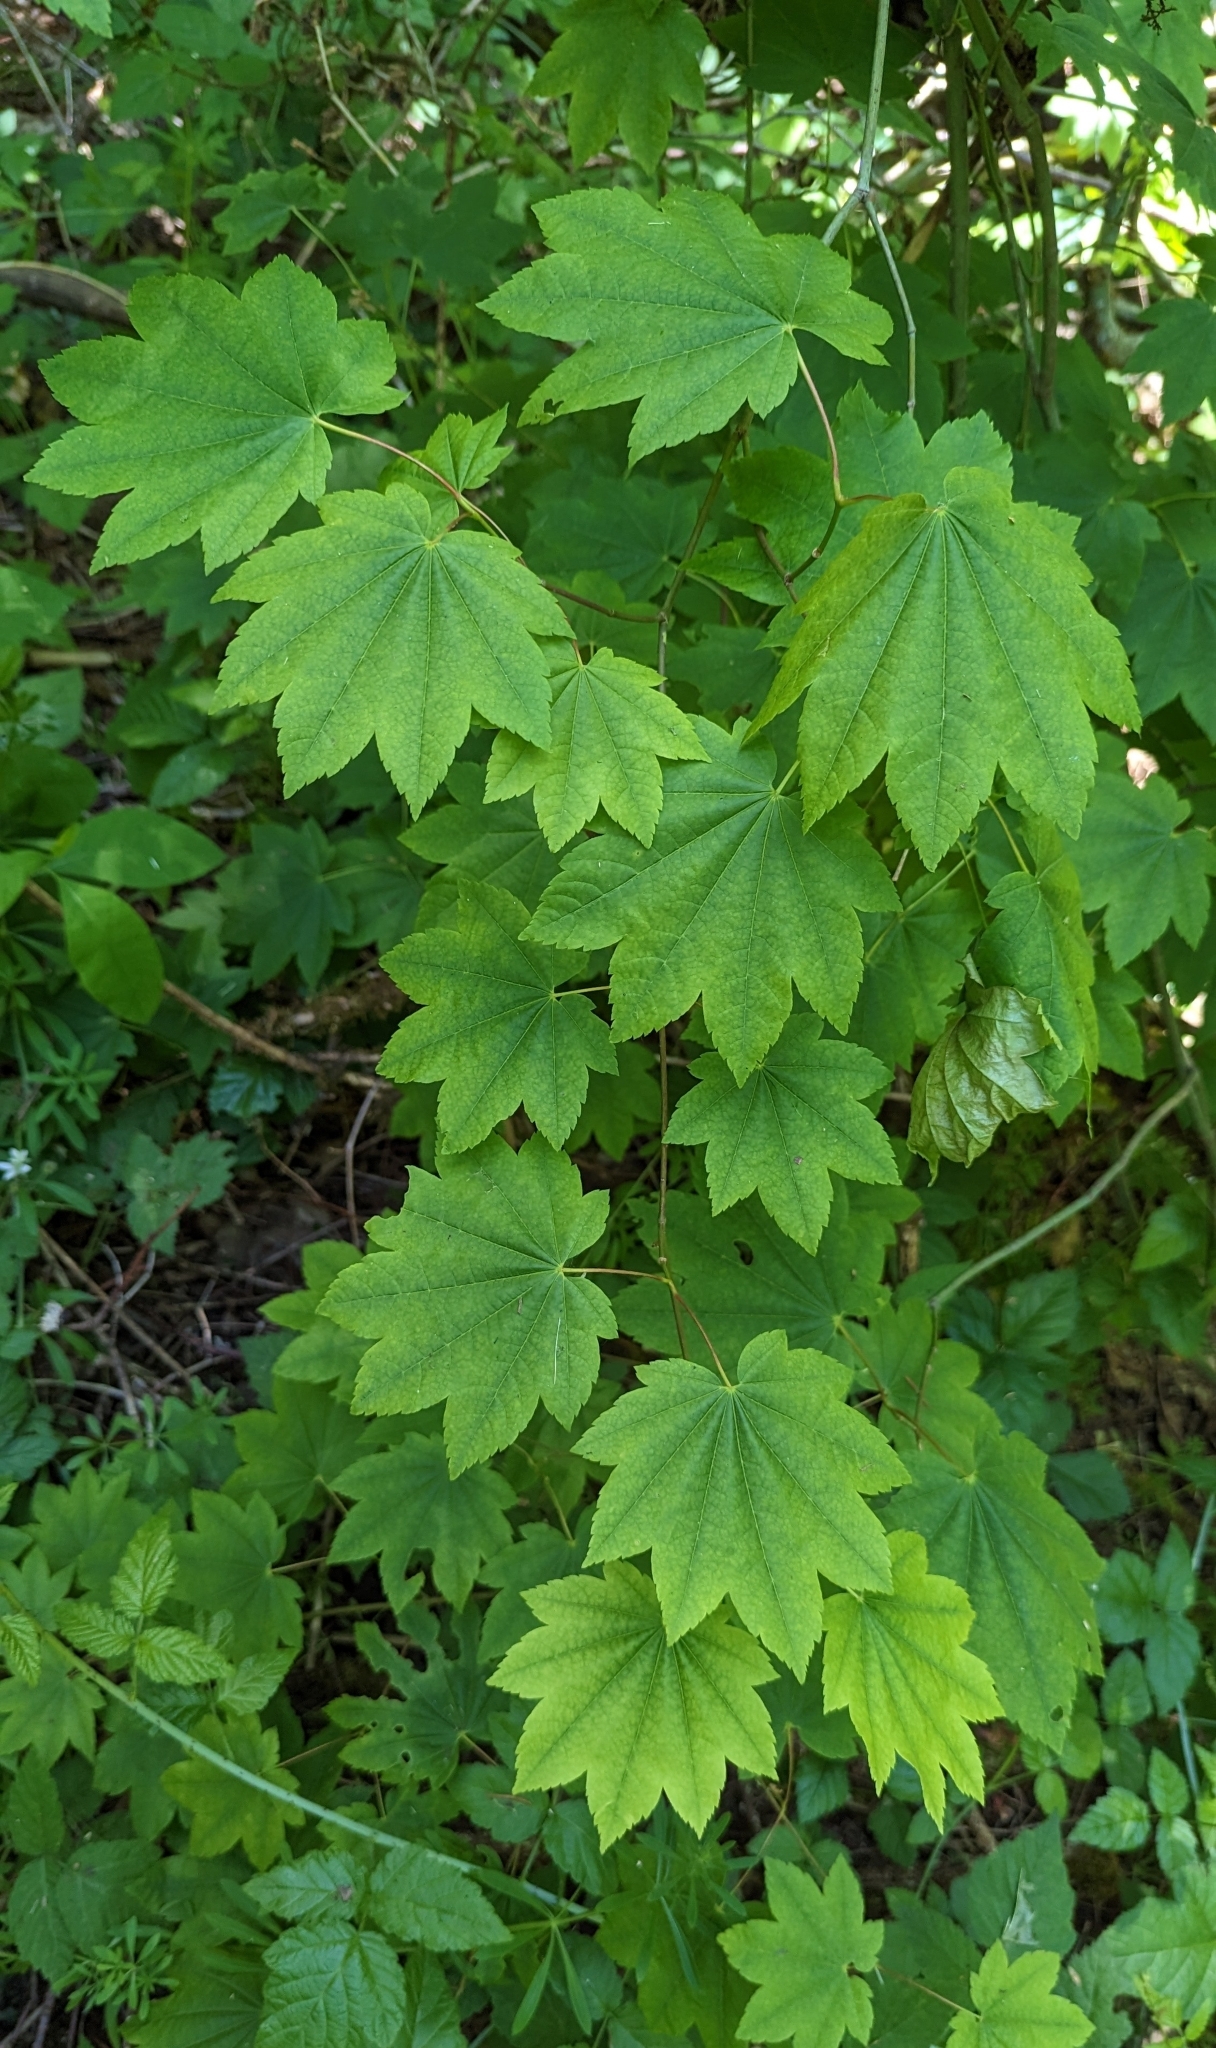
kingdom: Plantae
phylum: Tracheophyta
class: Magnoliopsida
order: Sapindales
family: Sapindaceae
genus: Acer
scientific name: Acer circinatum
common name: Vine maple
